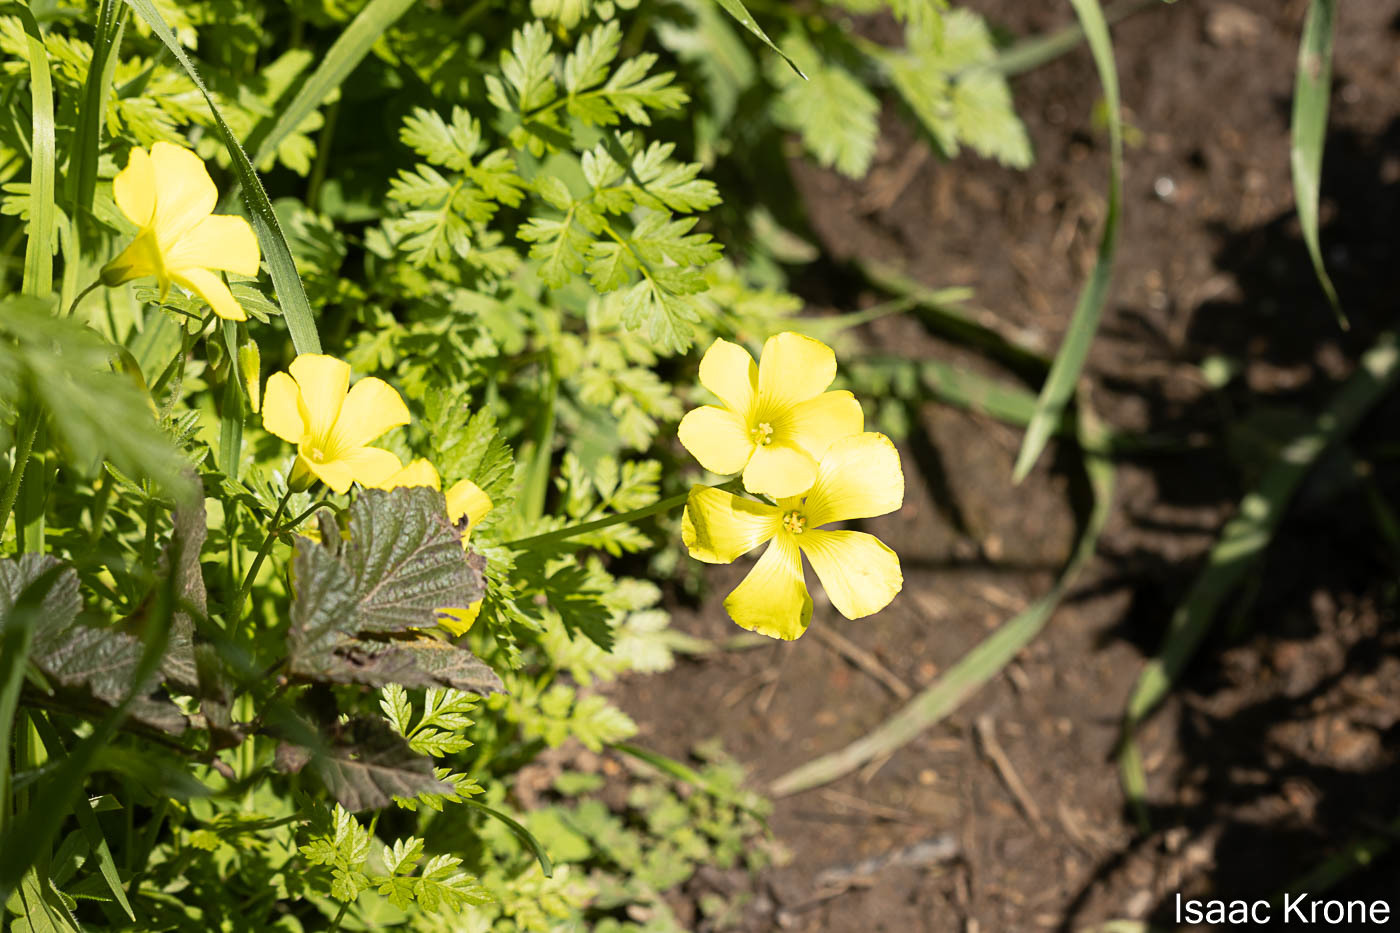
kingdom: Plantae
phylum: Tracheophyta
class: Magnoliopsida
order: Oxalidales
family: Oxalidaceae
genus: Oxalis
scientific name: Oxalis pes-caprae
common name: Bermuda-buttercup
